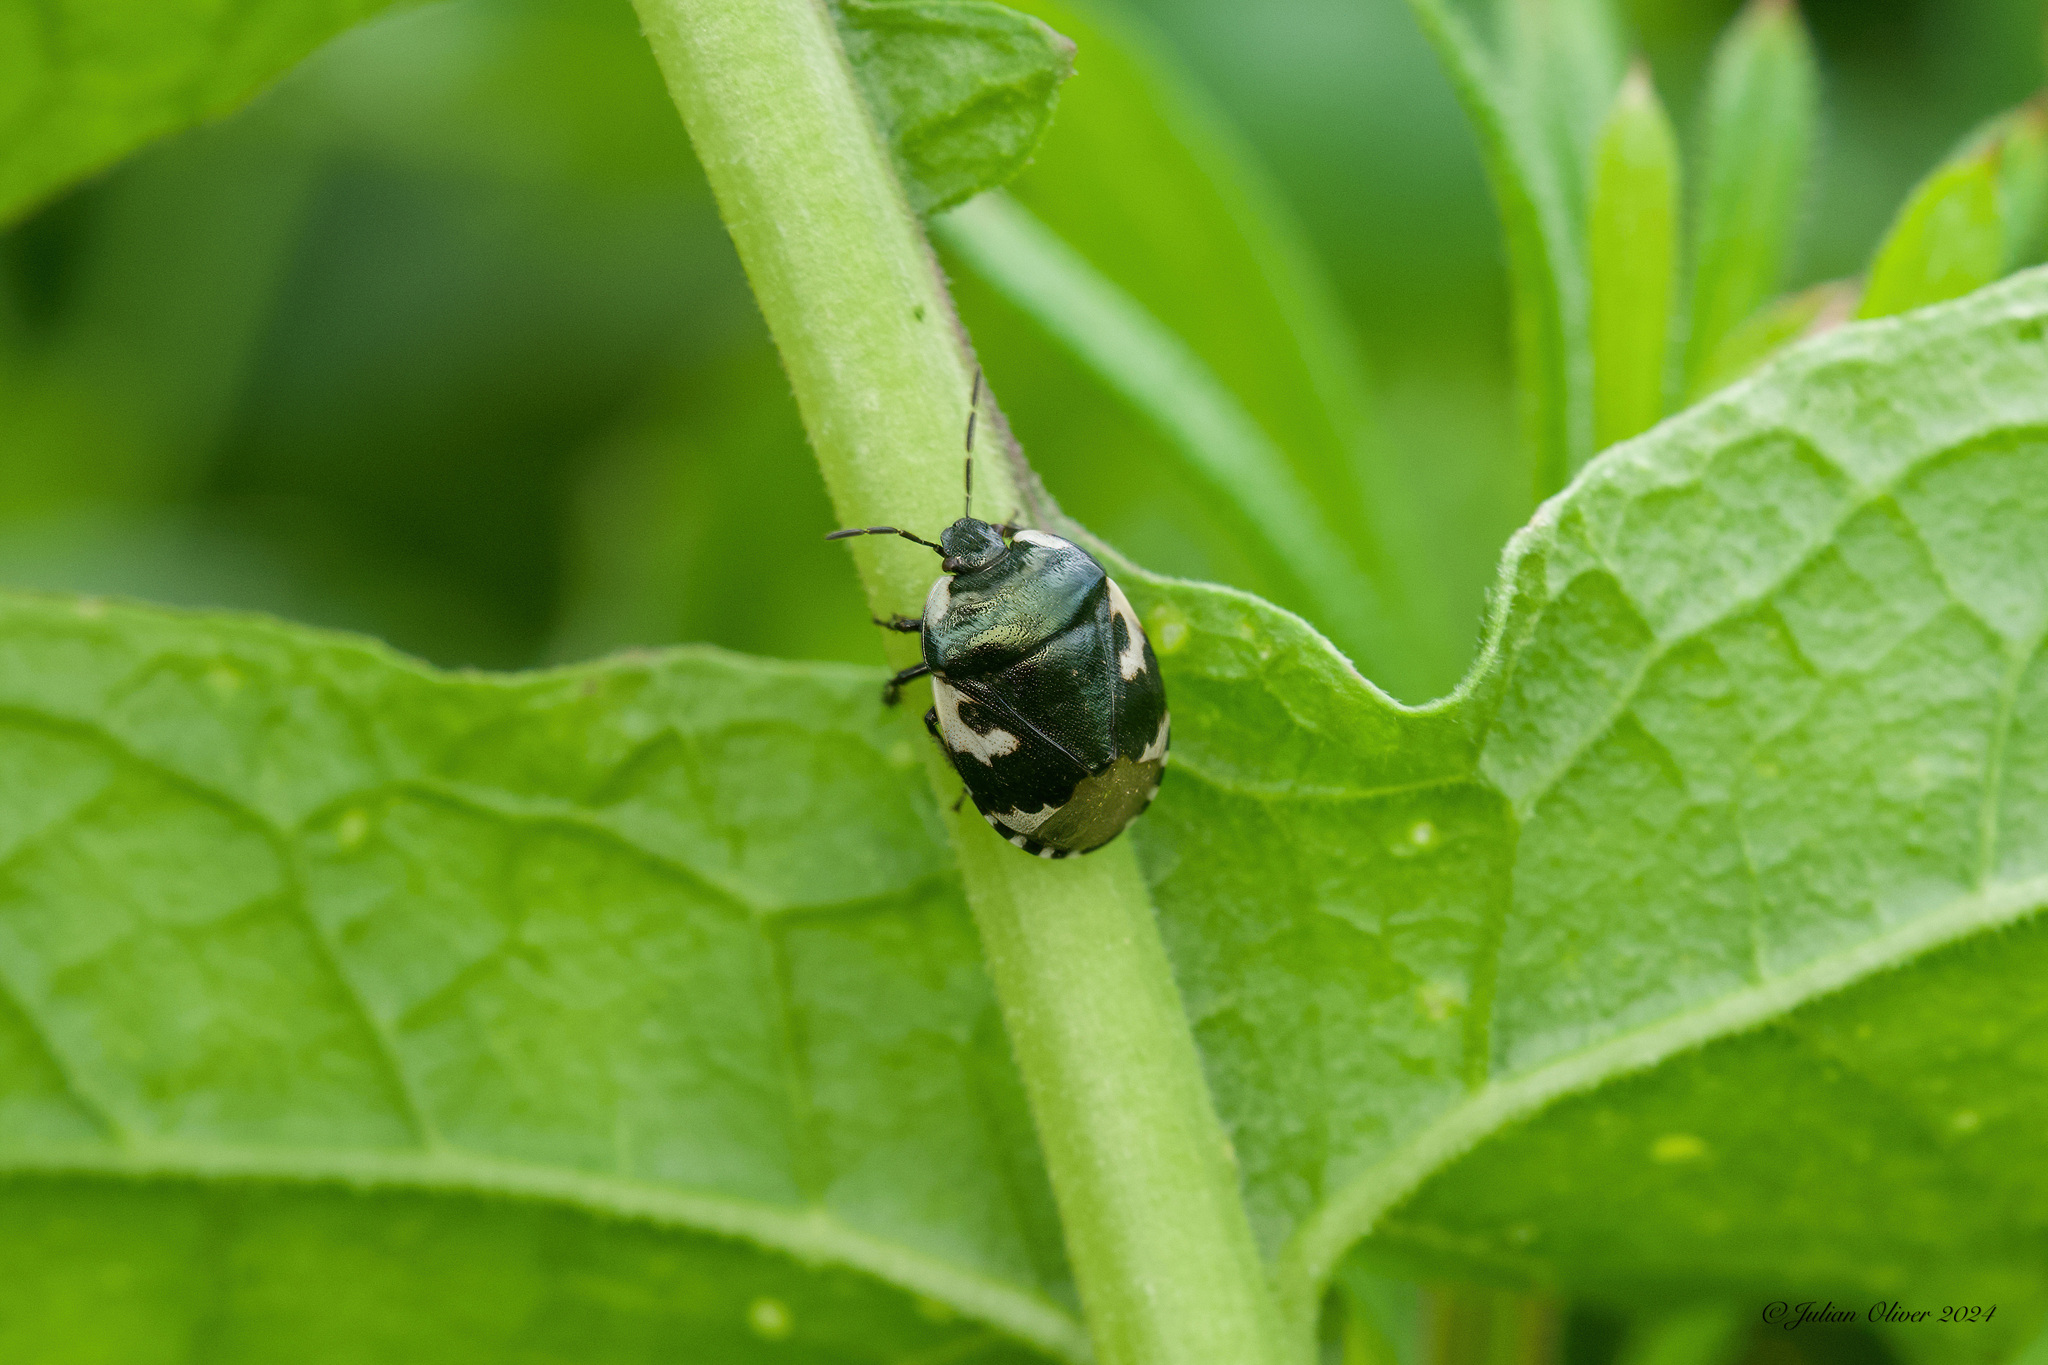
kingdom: Animalia
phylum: Arthropoda
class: Insecta
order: Hemiptera
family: Cydnidae
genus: Tritomegas
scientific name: Tritomegas bicolor
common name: Pied shieldbug
